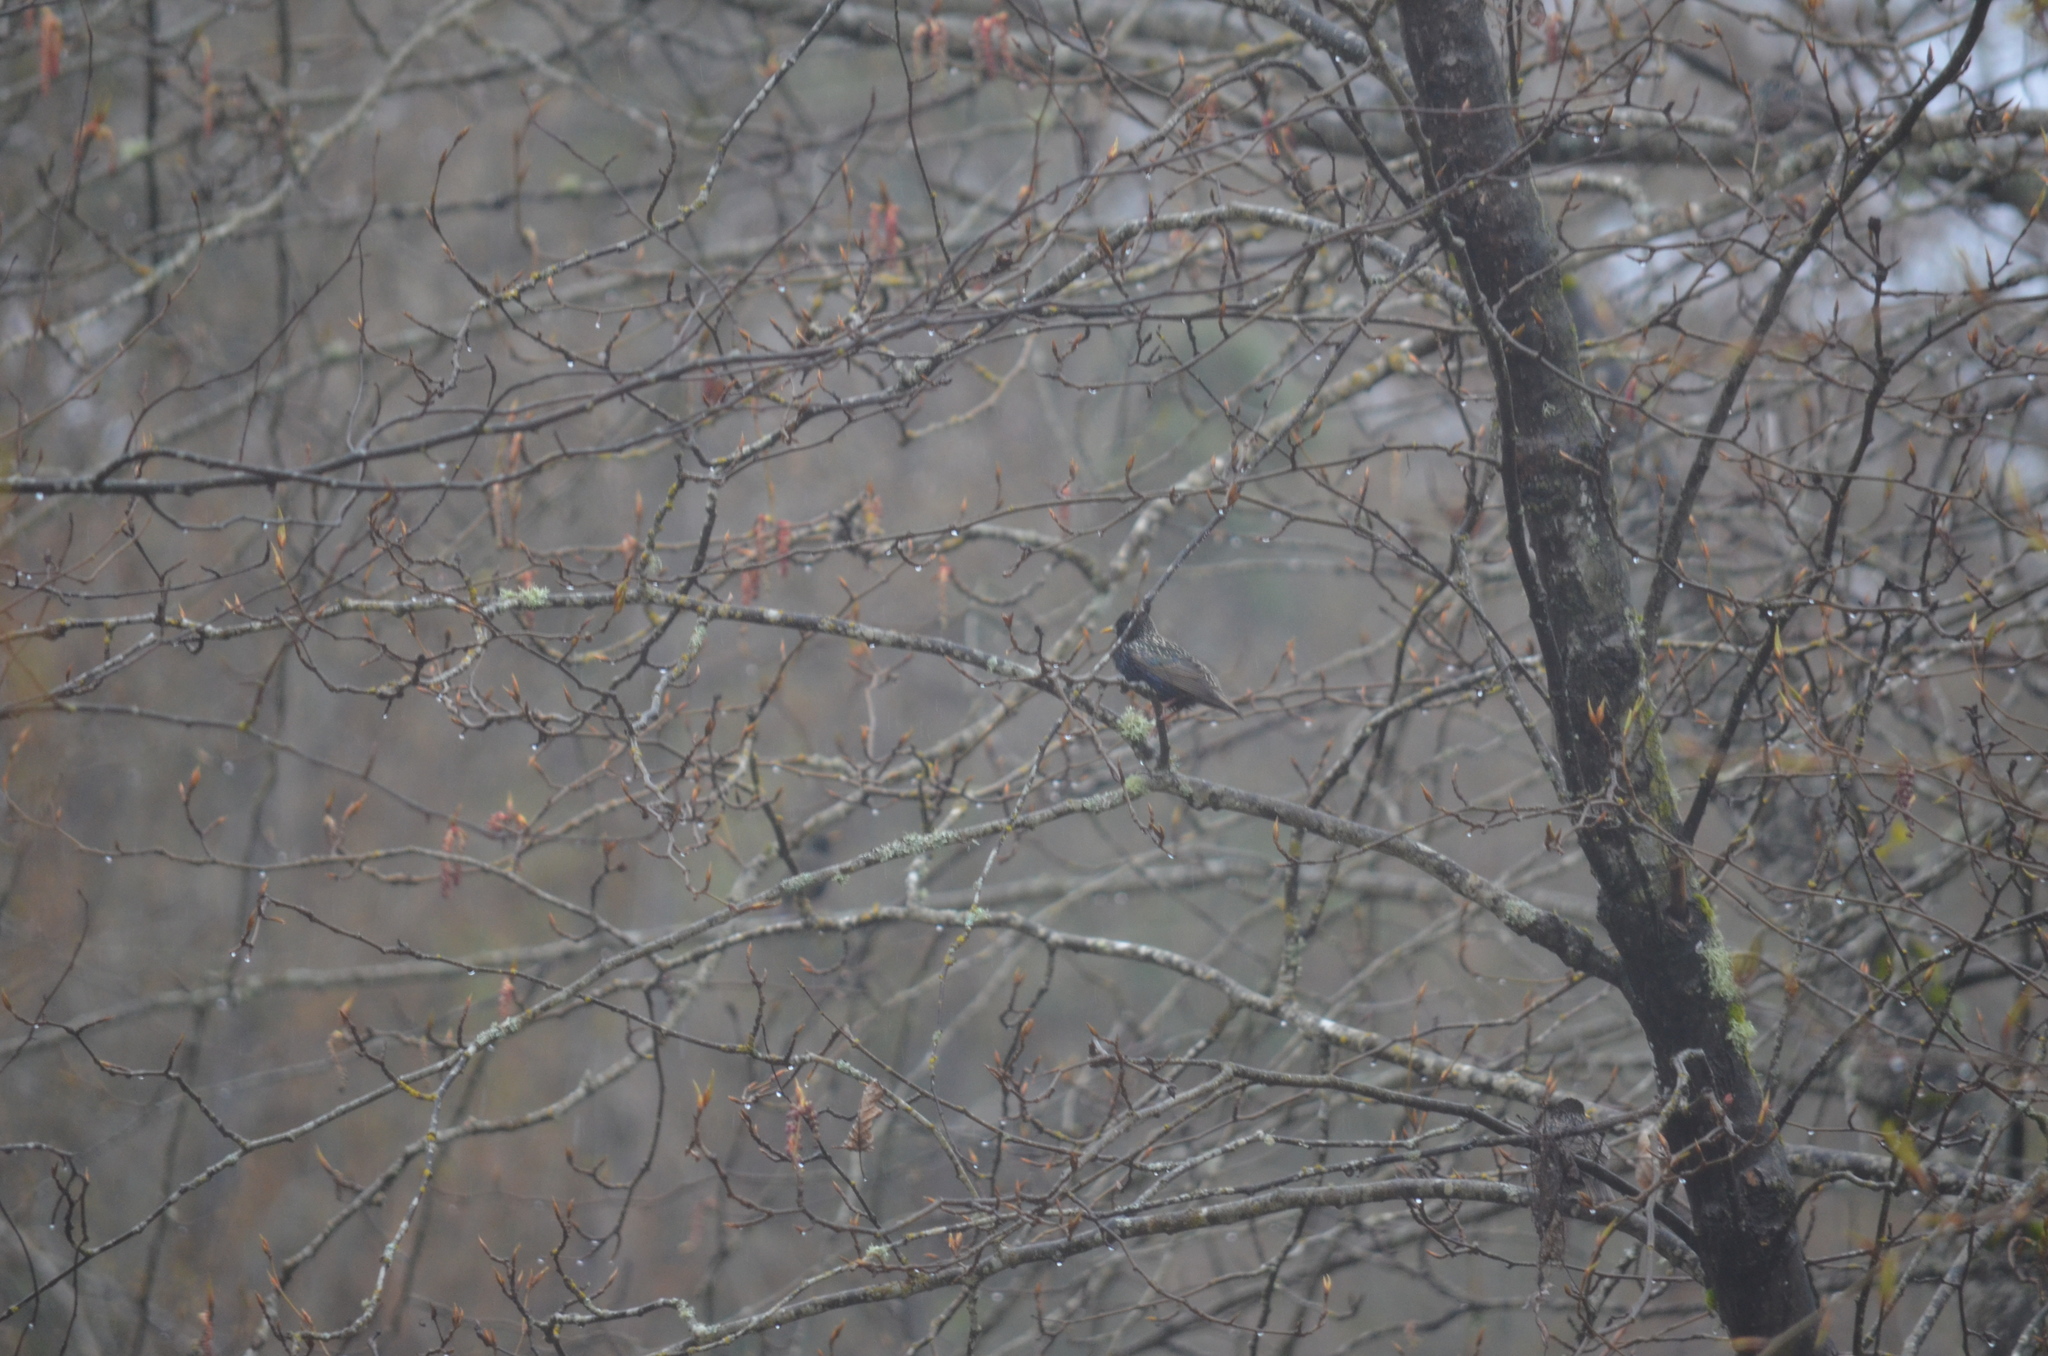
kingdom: Animalia
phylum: Chordata
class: Aves
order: Passeriformes
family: Sturnidae
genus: Sturnus
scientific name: Sturnus vulgaris
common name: Common starling
